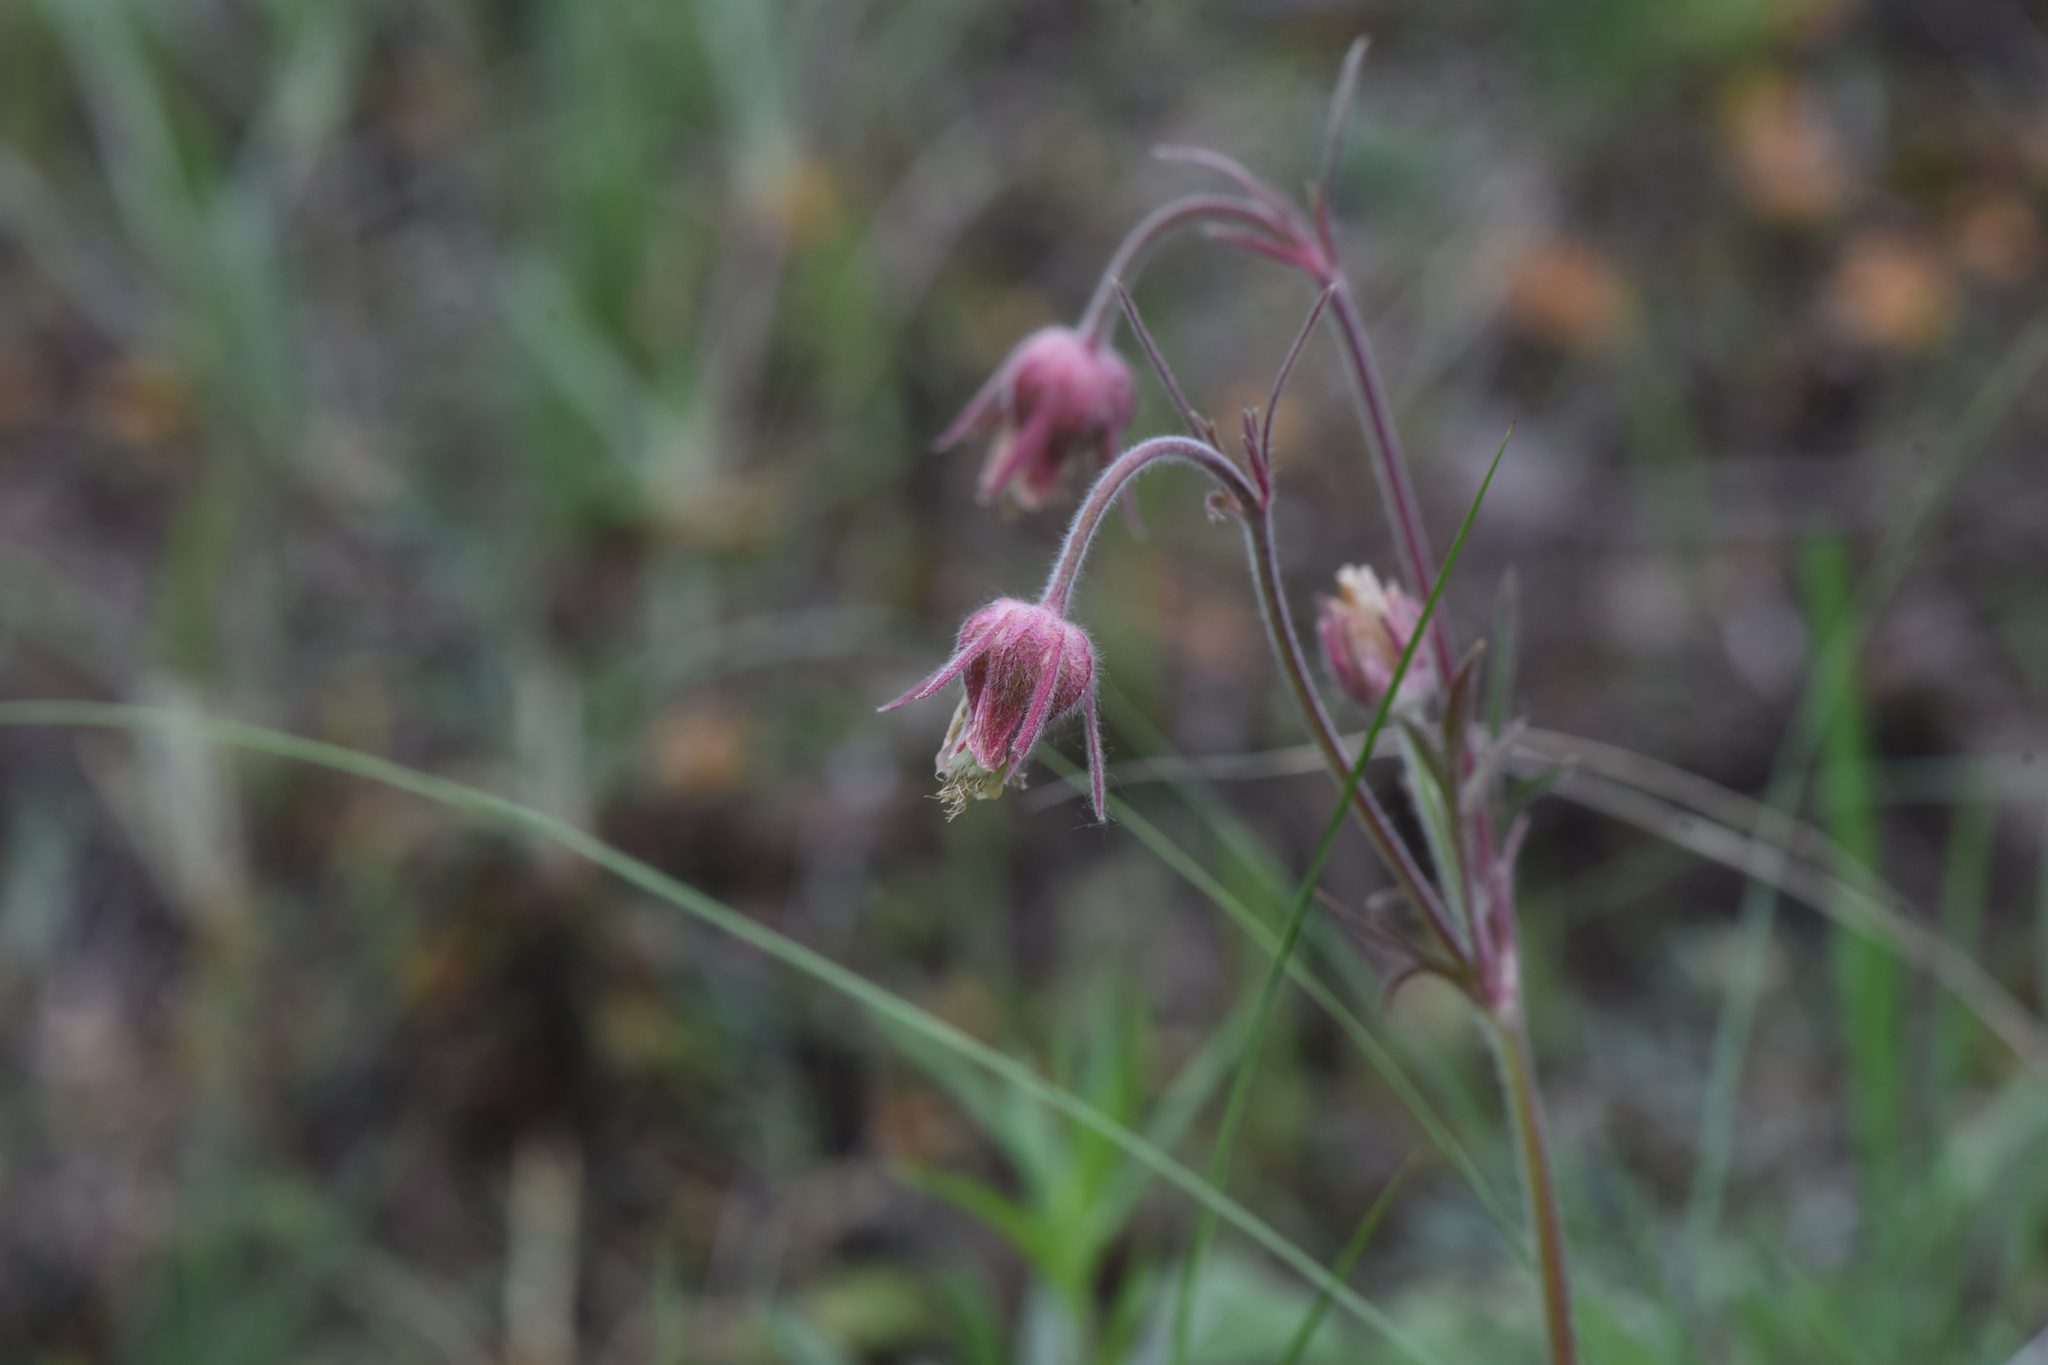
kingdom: Plantae
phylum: Tracheophyta
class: Magnoliopsida
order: Rosales
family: Rosaceae
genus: Geum
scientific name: Geum triflorum
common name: Old man's whiskers
